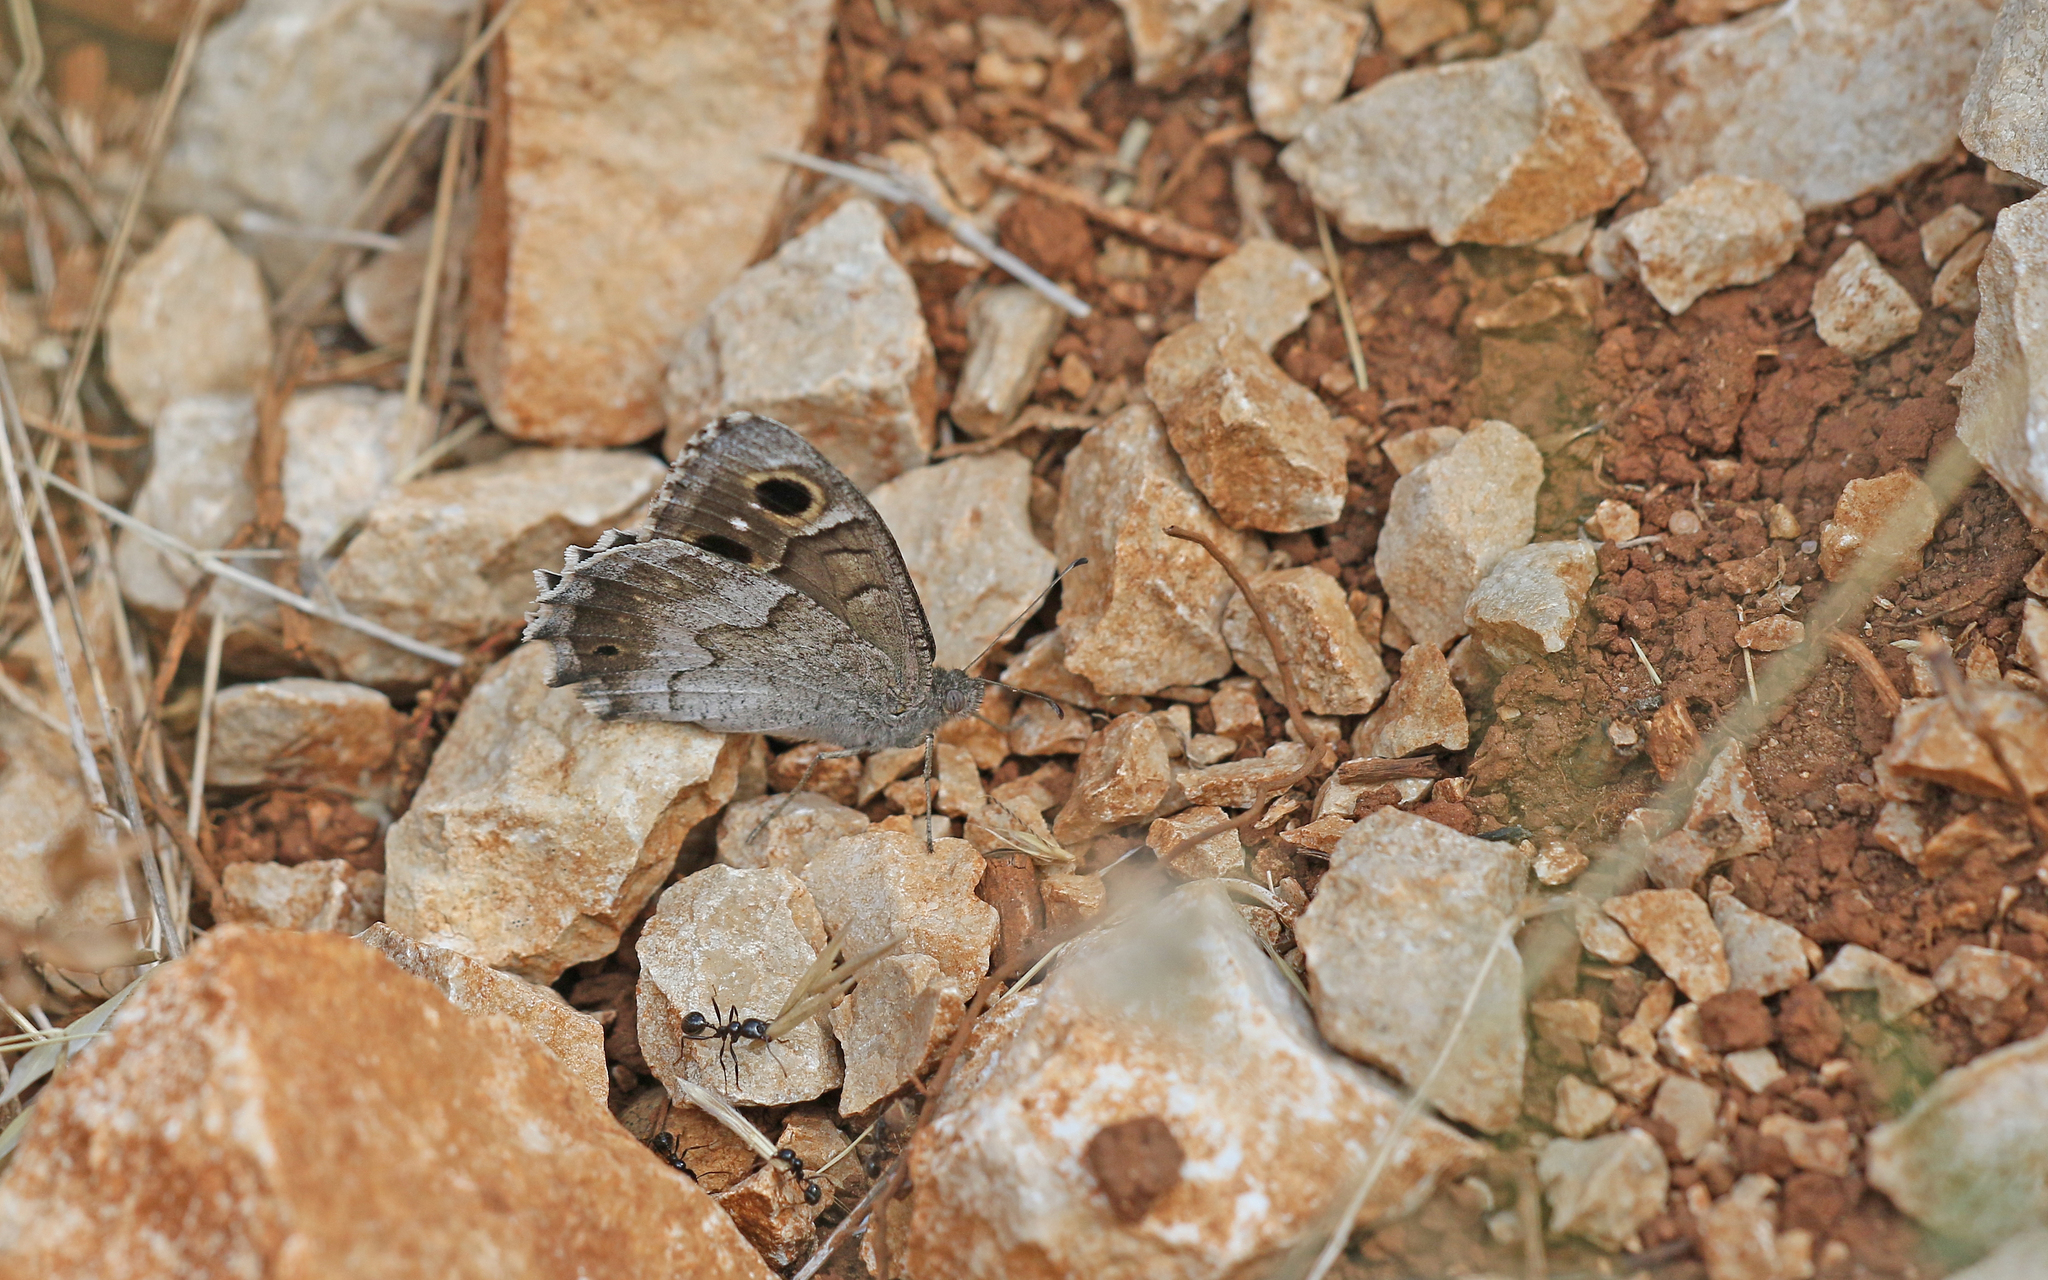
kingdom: Animalia
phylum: Arthropoda
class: Insecta
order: Lepidoptera
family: Nymphalidae
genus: Hipparchia
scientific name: Hipparchia statilinus
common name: Tree grayling
